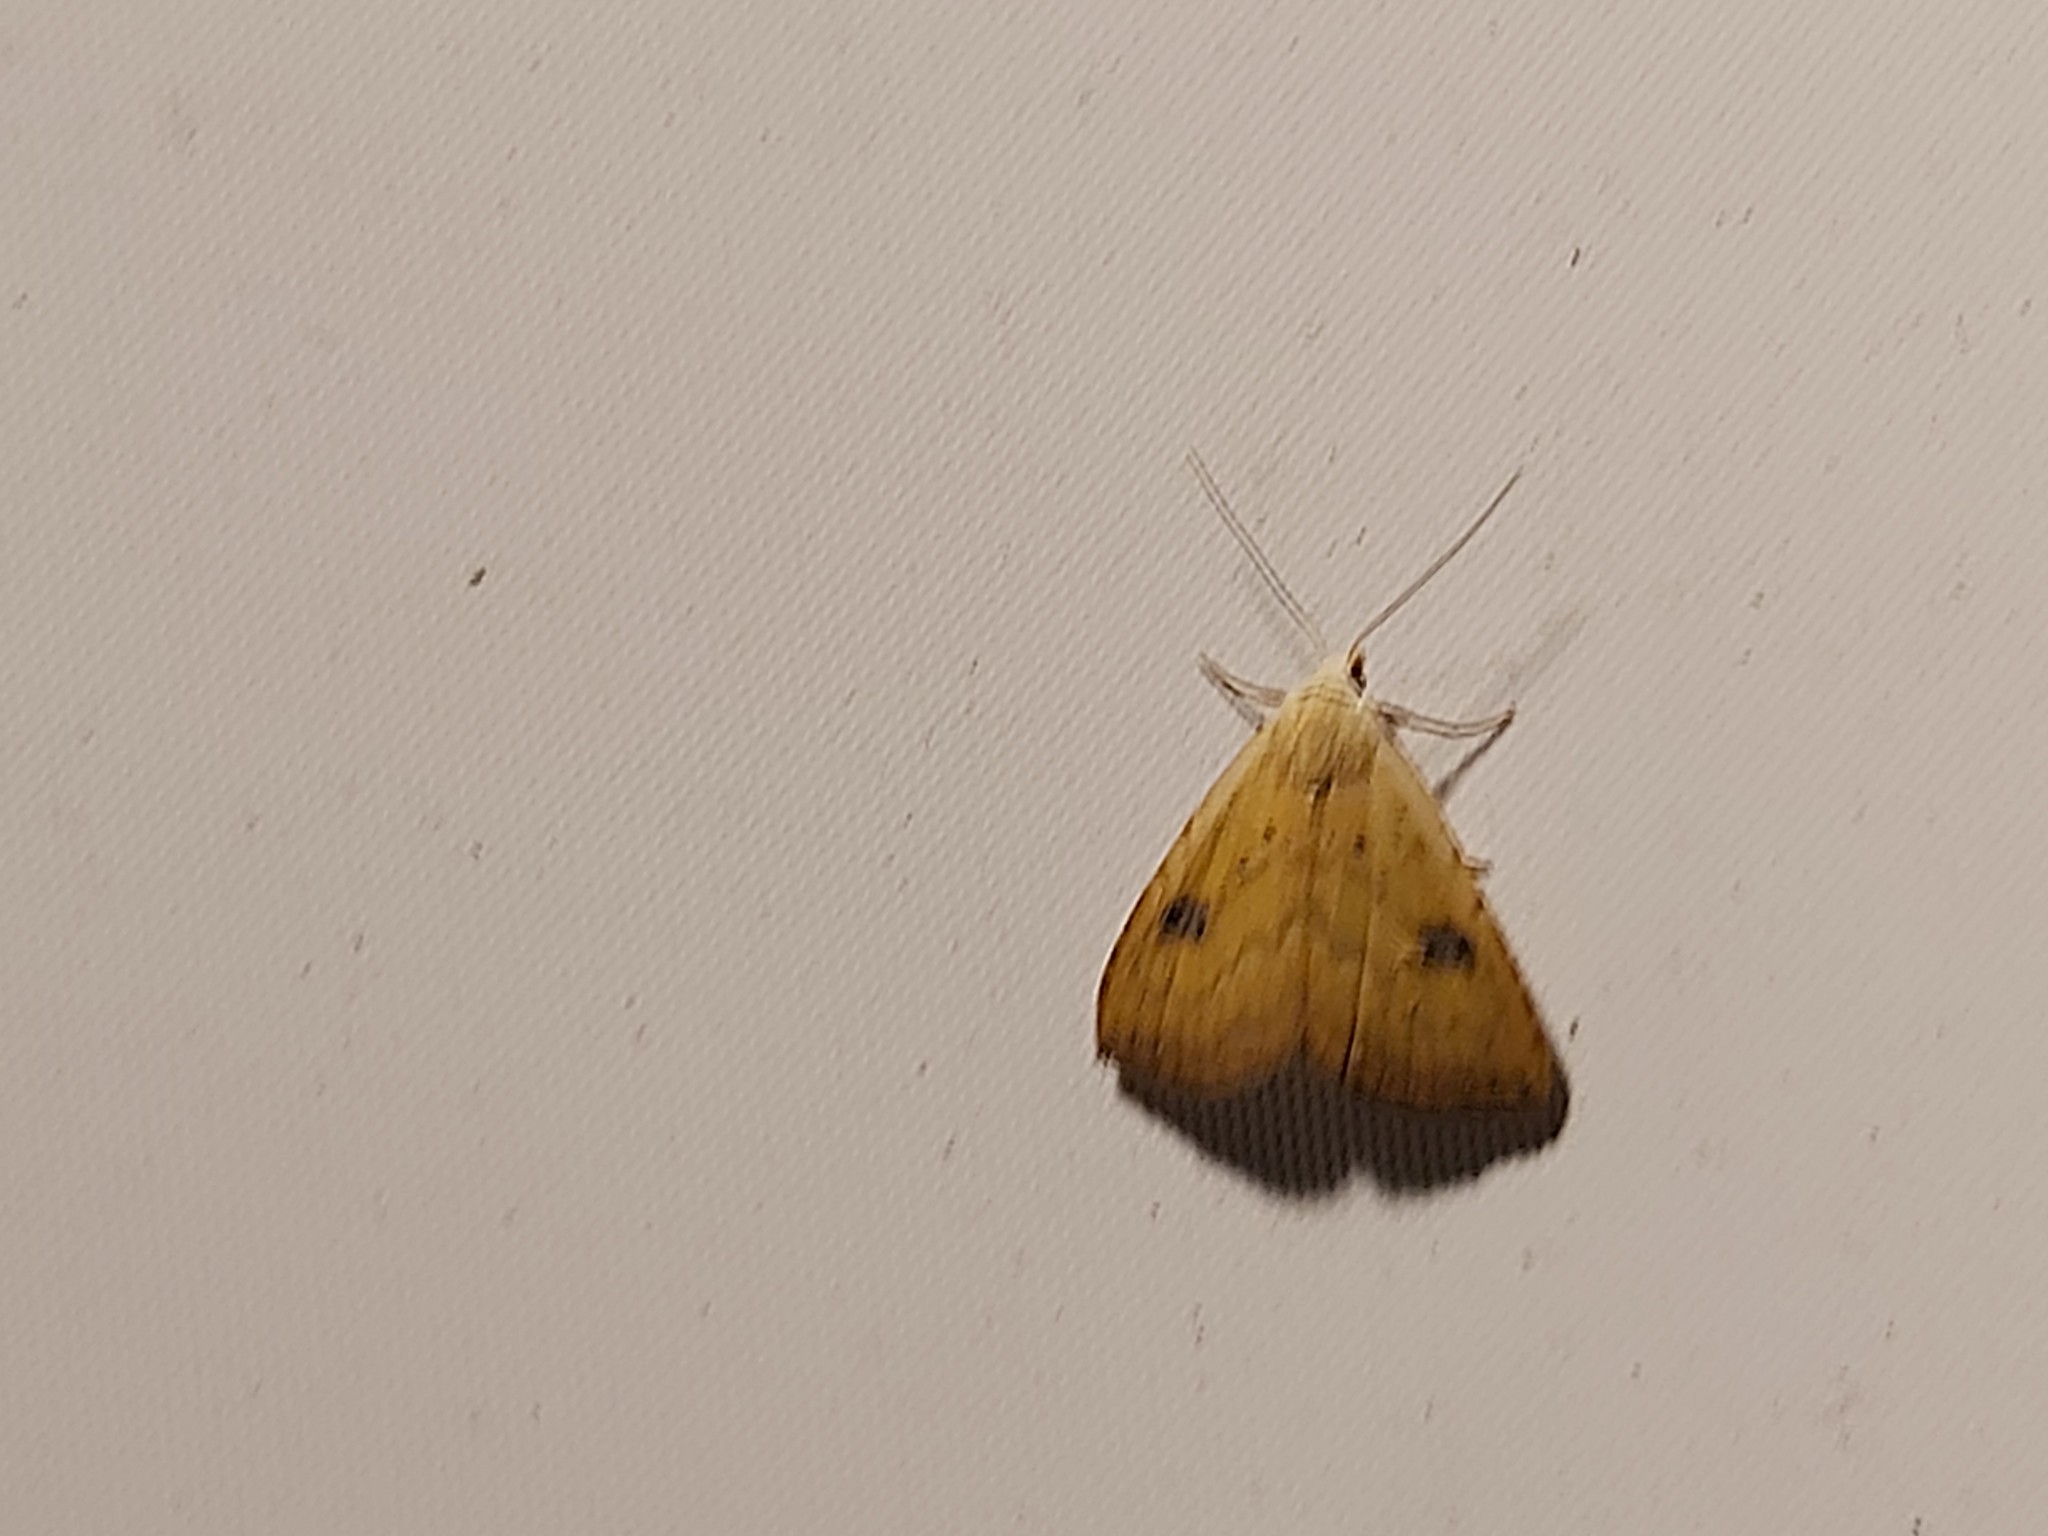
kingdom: Animalia
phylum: Arthropoda
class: Insecta
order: Lepidoptera
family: Erebidae
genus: Rivula
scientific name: Rivula sericealis
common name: Straw dot
